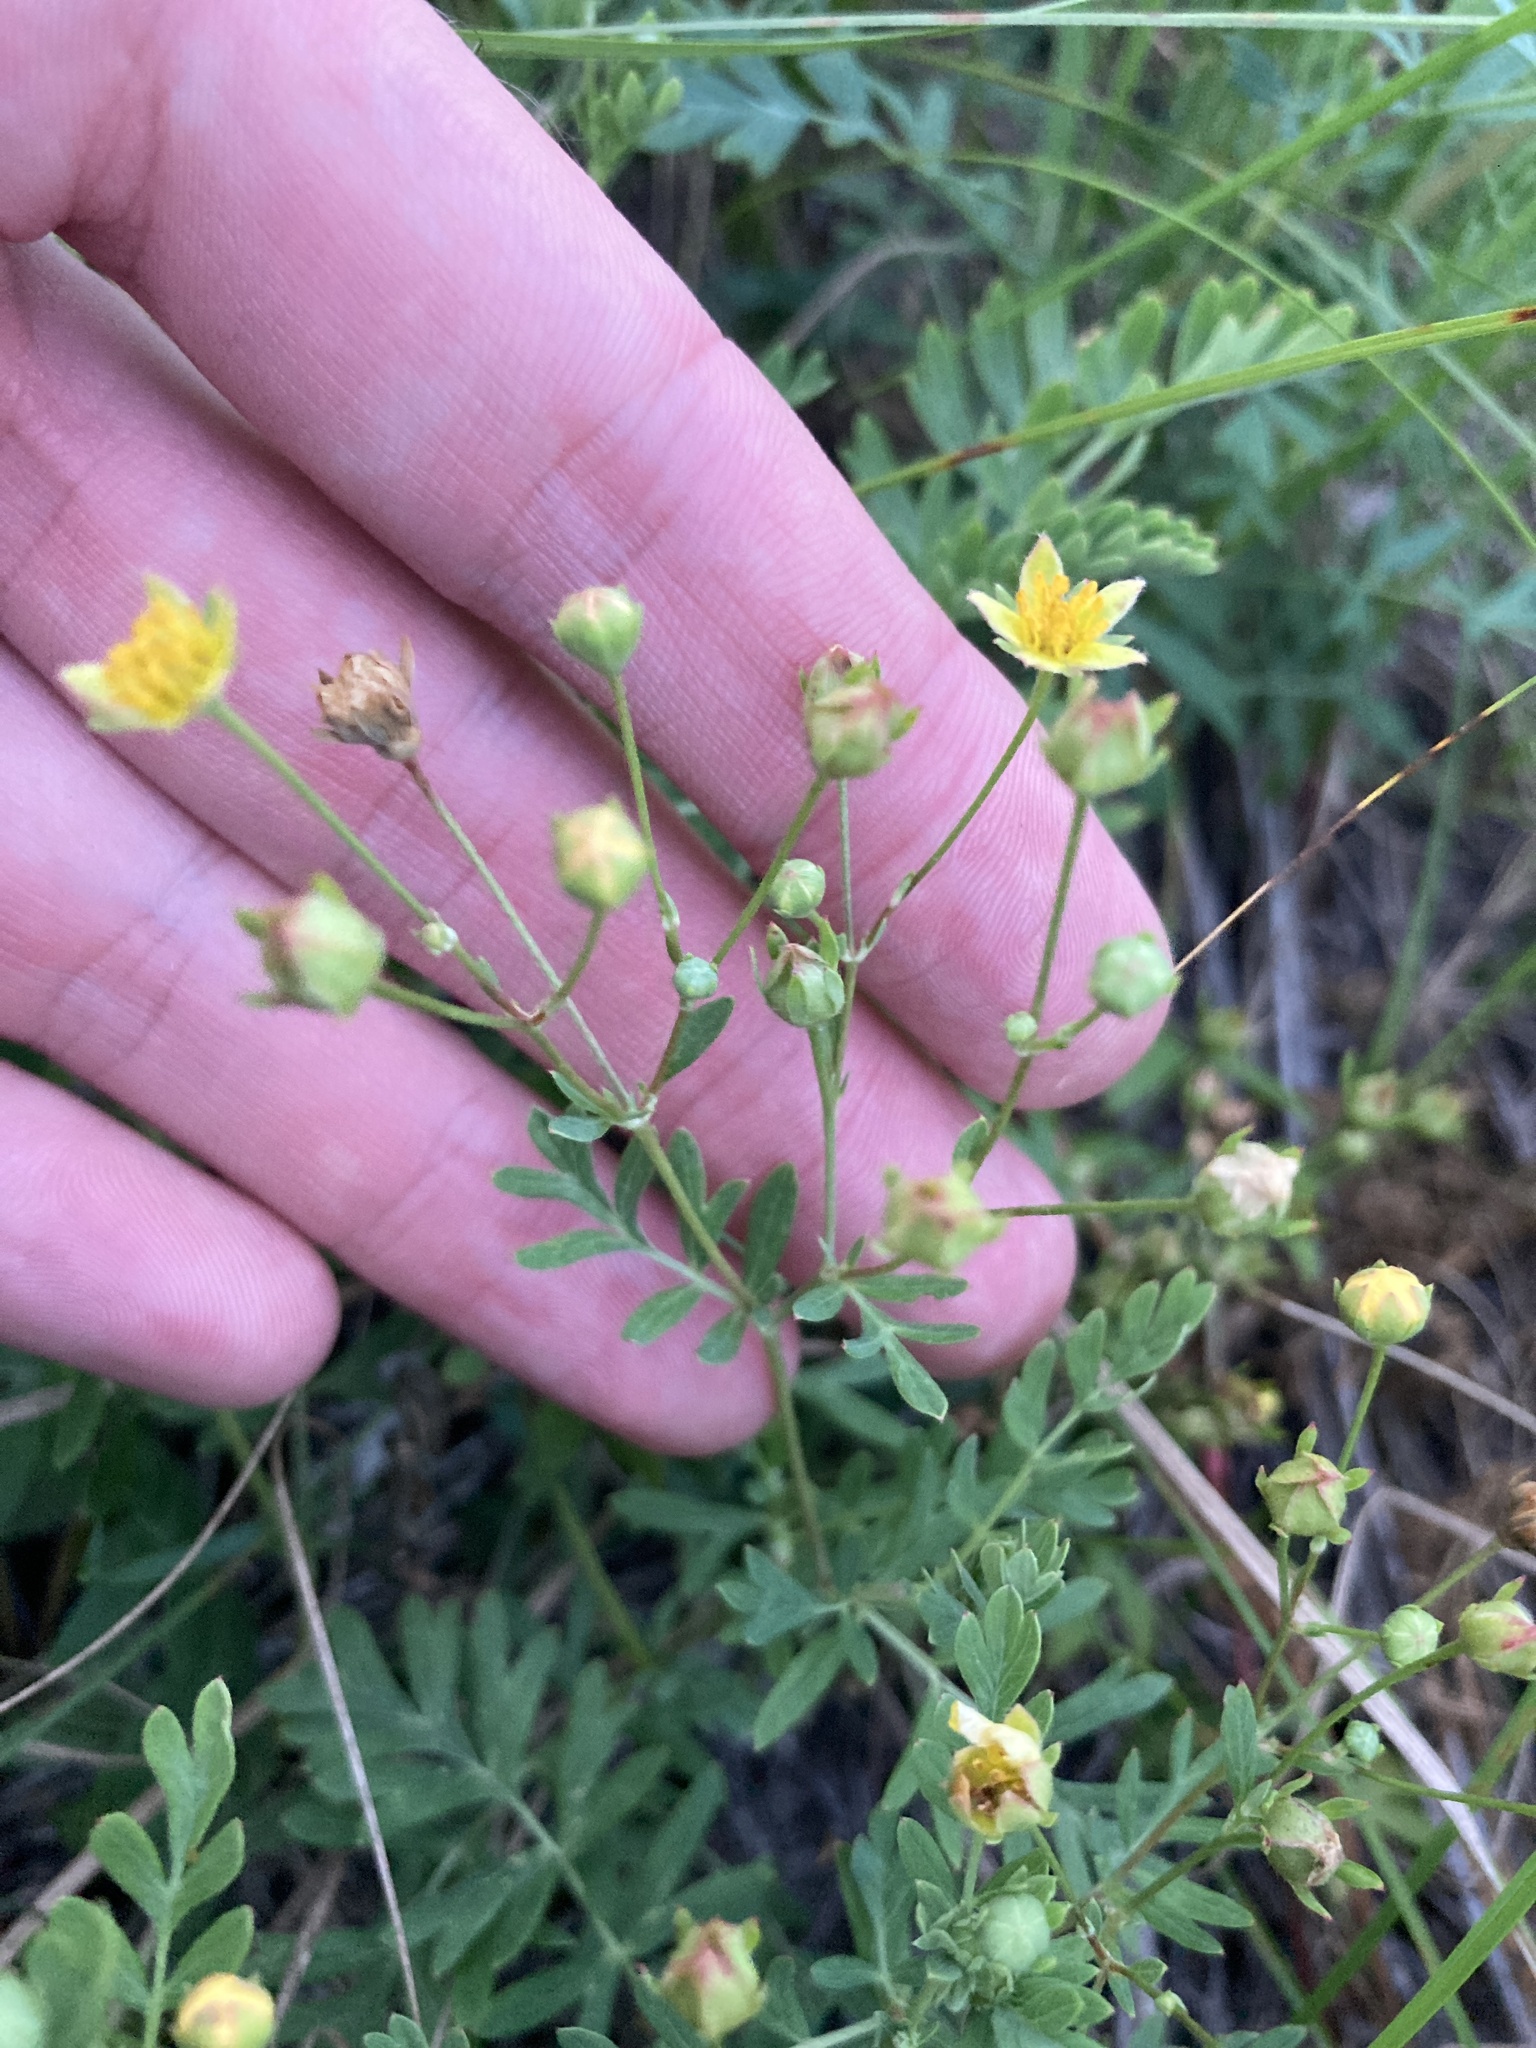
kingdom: Plantae
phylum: Tracheophyta
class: Magnoliopsida
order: Rosales
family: Rosaceae
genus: Sibbaldianthe
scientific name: Sibbaldianthe bifurca
